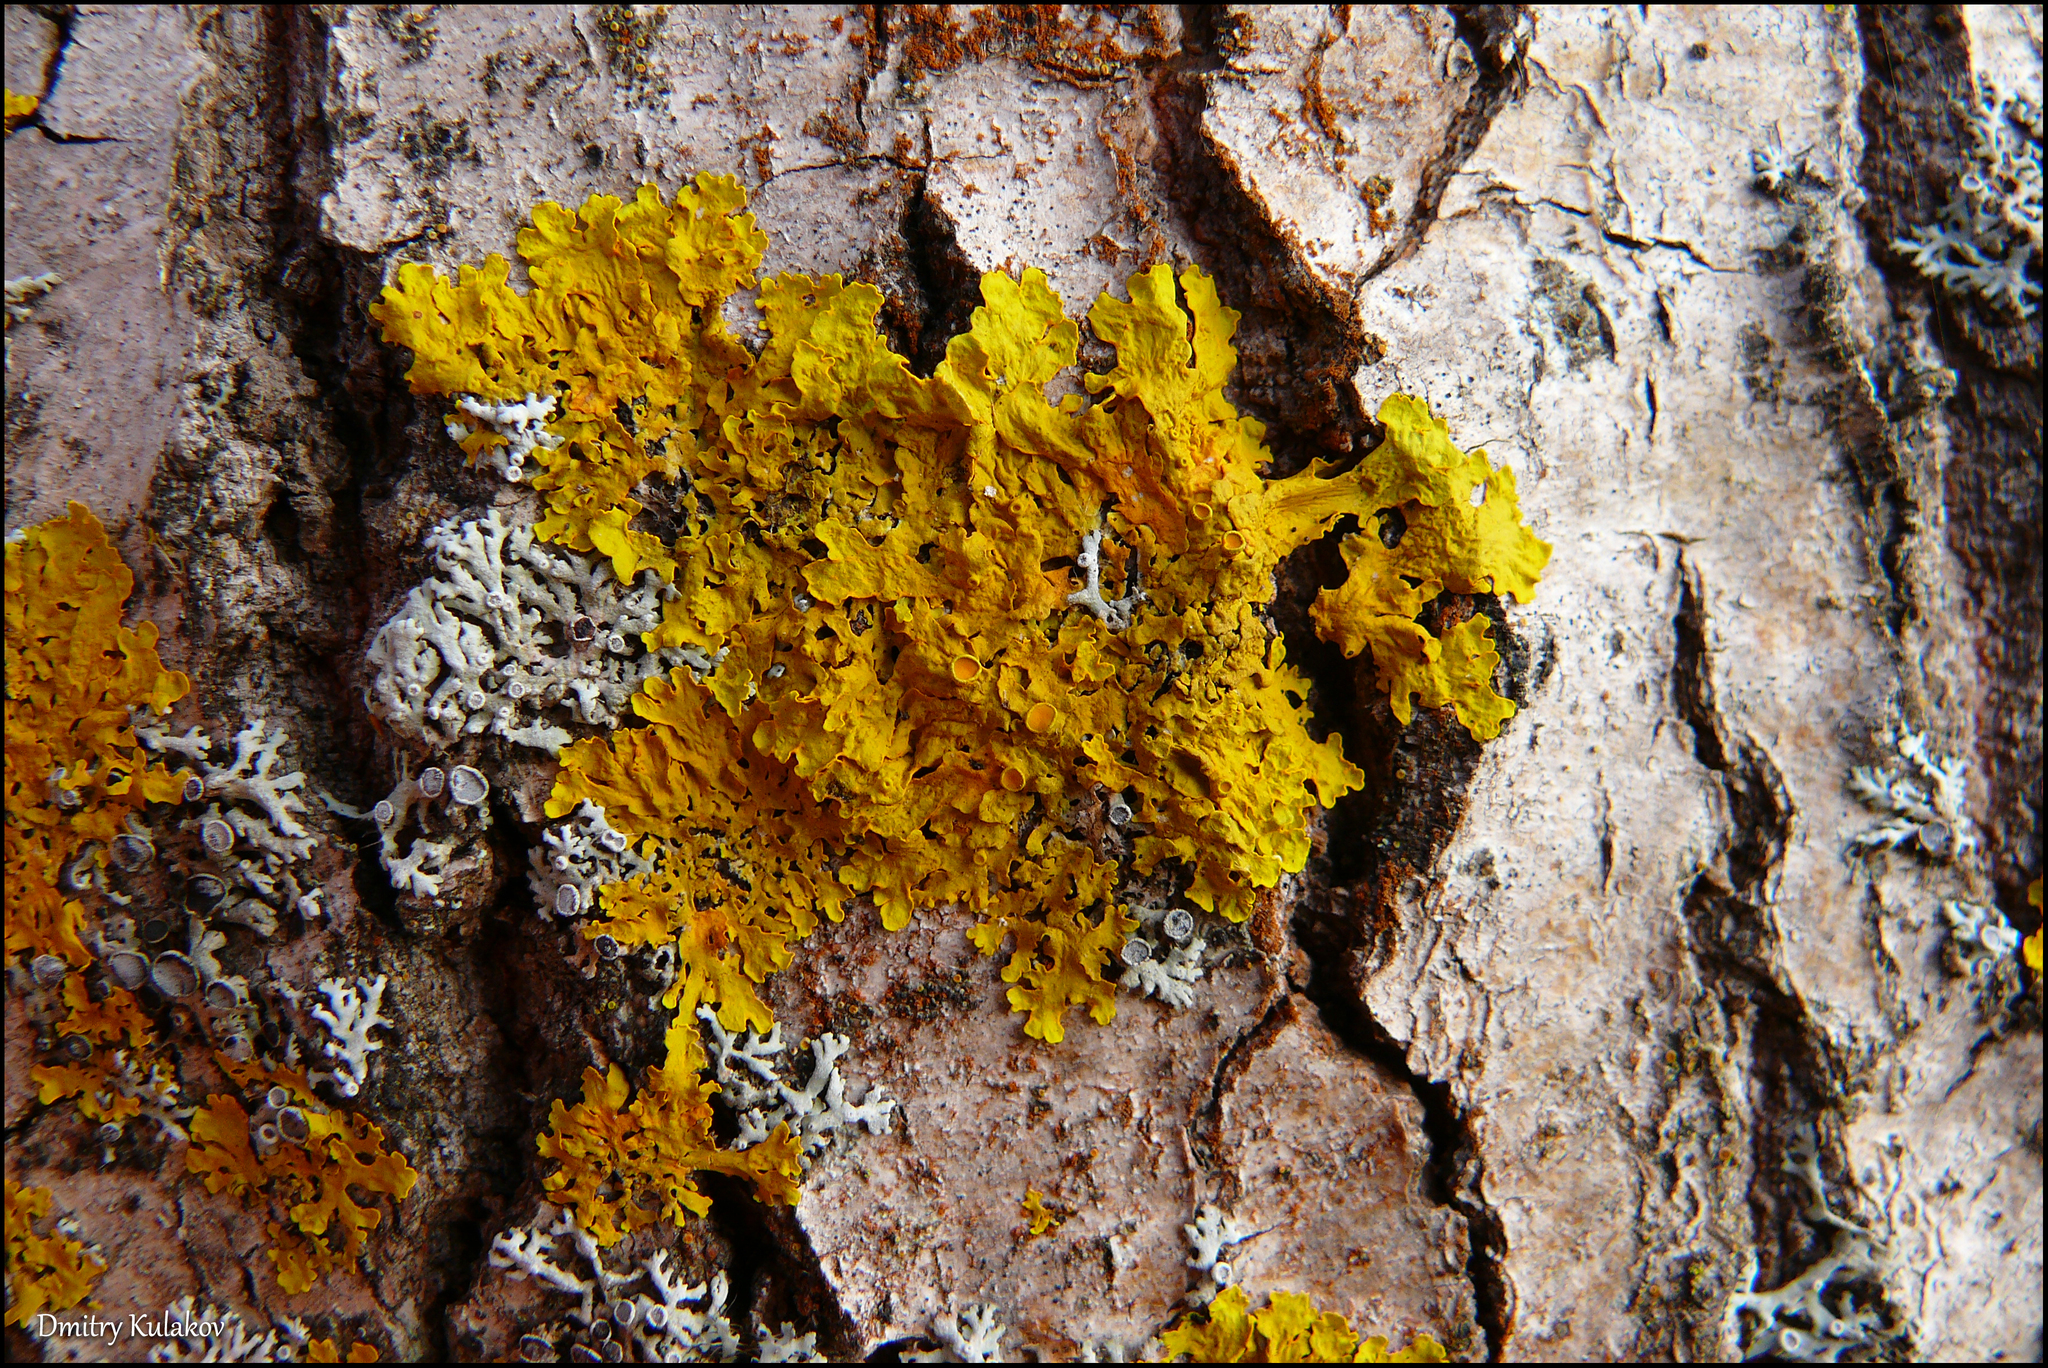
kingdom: Fungi
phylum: Ascomycota
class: Lecanoromycetes
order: Teloschistales
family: Teloschistaceae
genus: Xanthoria
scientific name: Xanthoria parietina
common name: Common orange lichen
